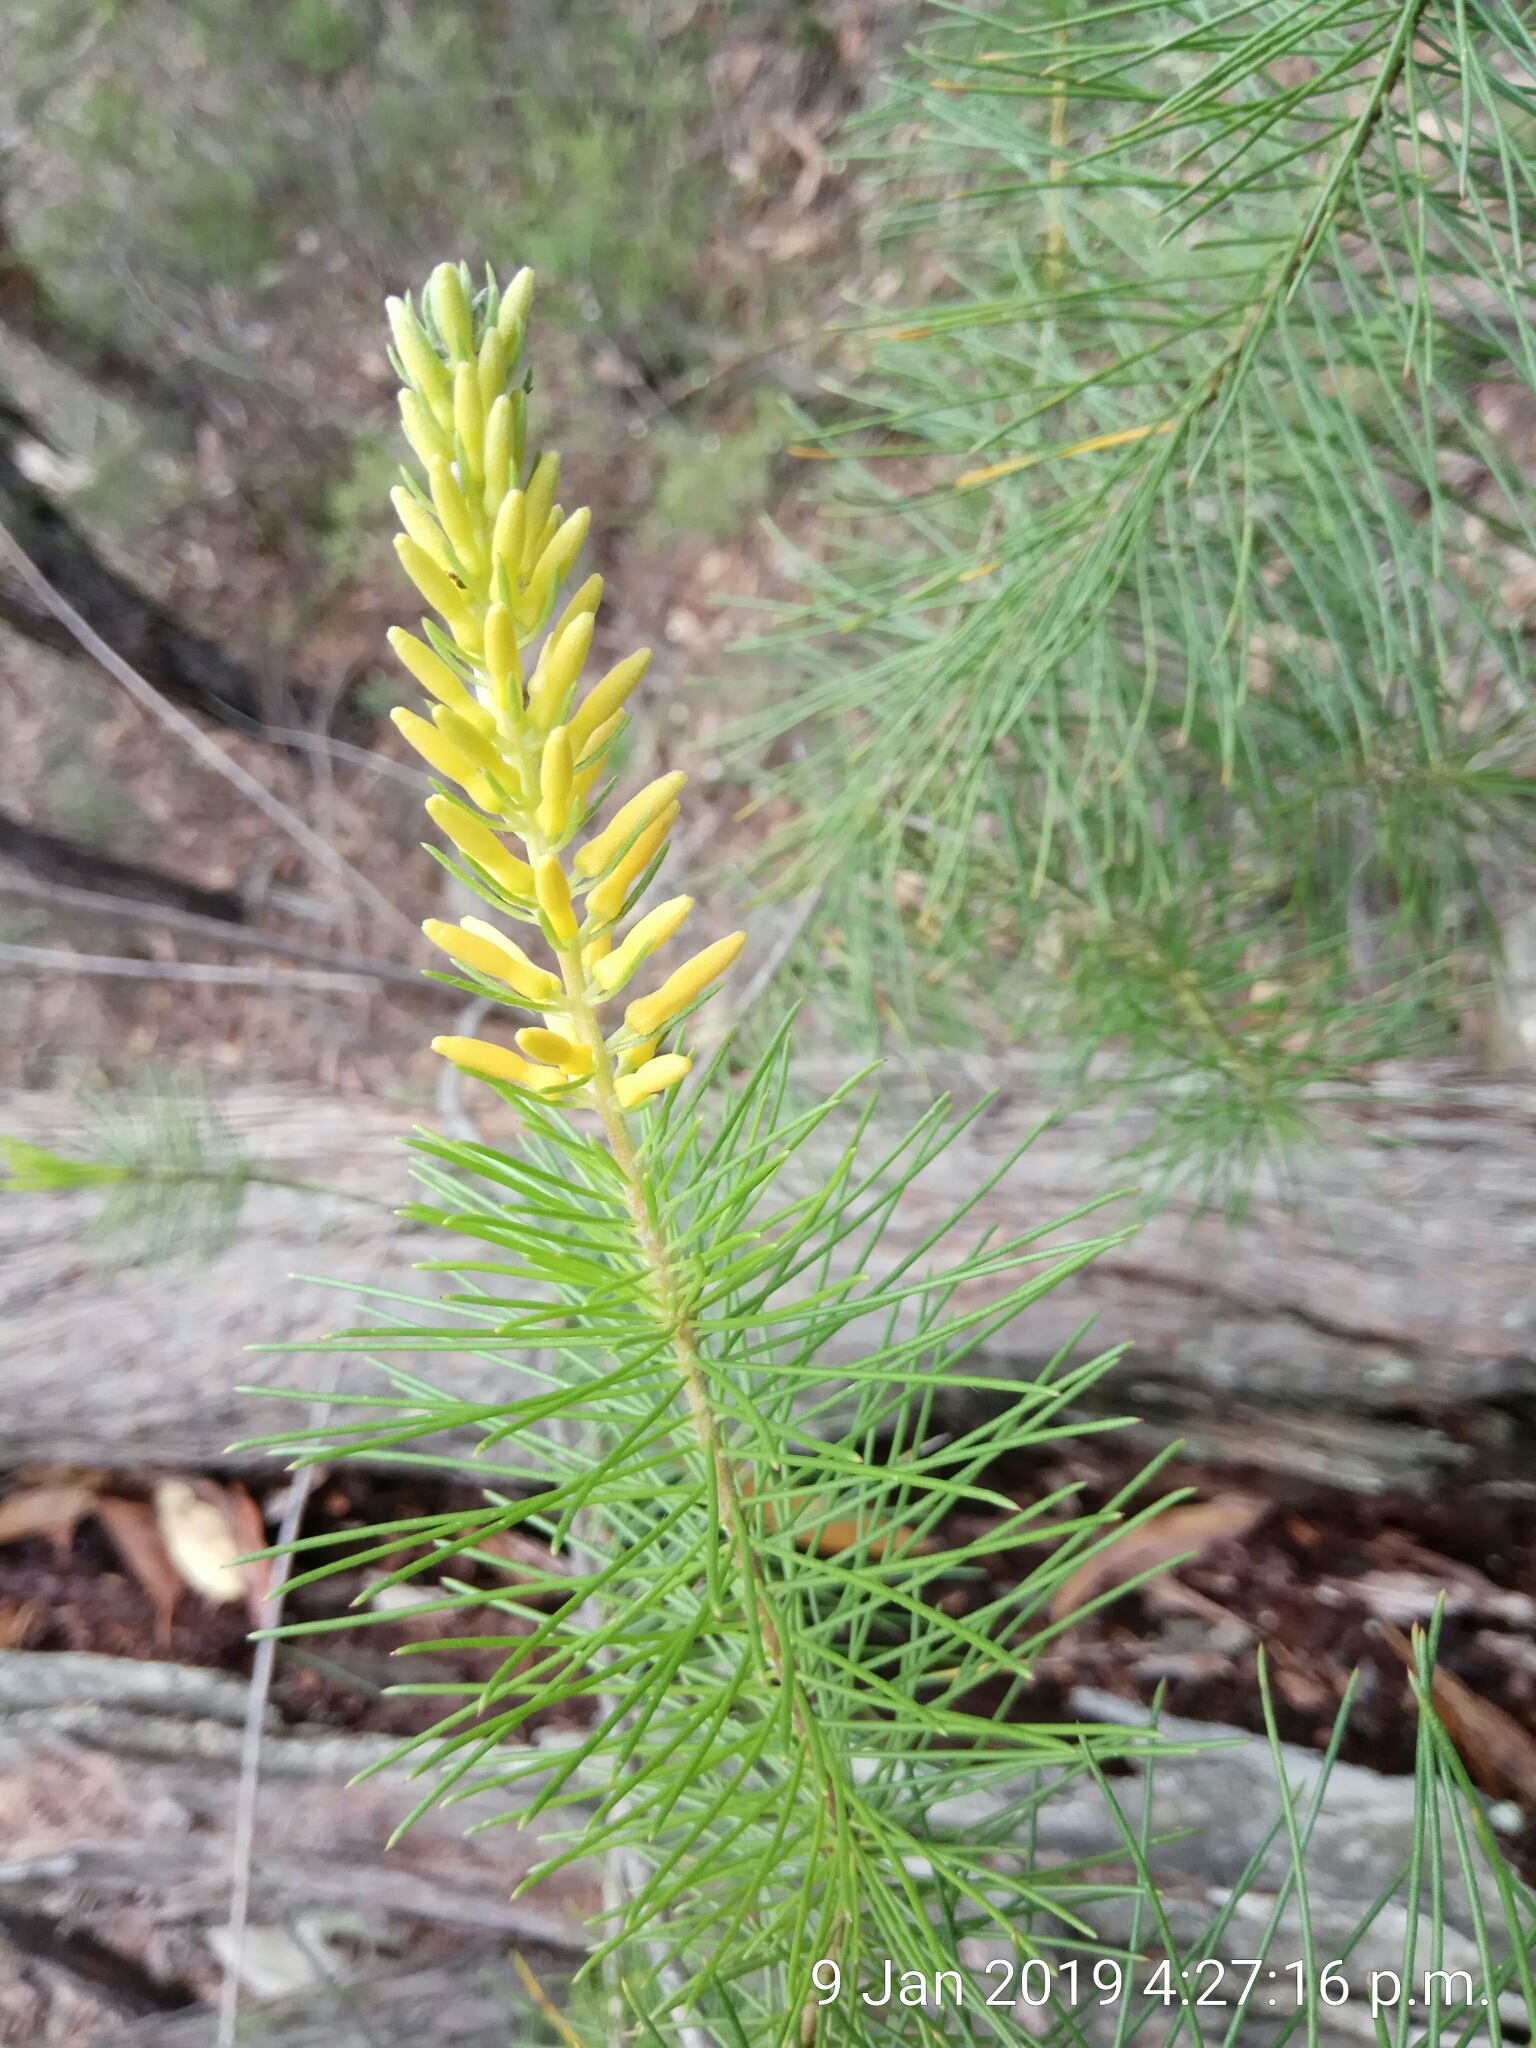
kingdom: Plantae
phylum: Tracheophyta
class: Magnoliopsida
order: Proteales
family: Proteaceae
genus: Persoonia
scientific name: Persoonia pinifolia
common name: Pine-leaf geebung
